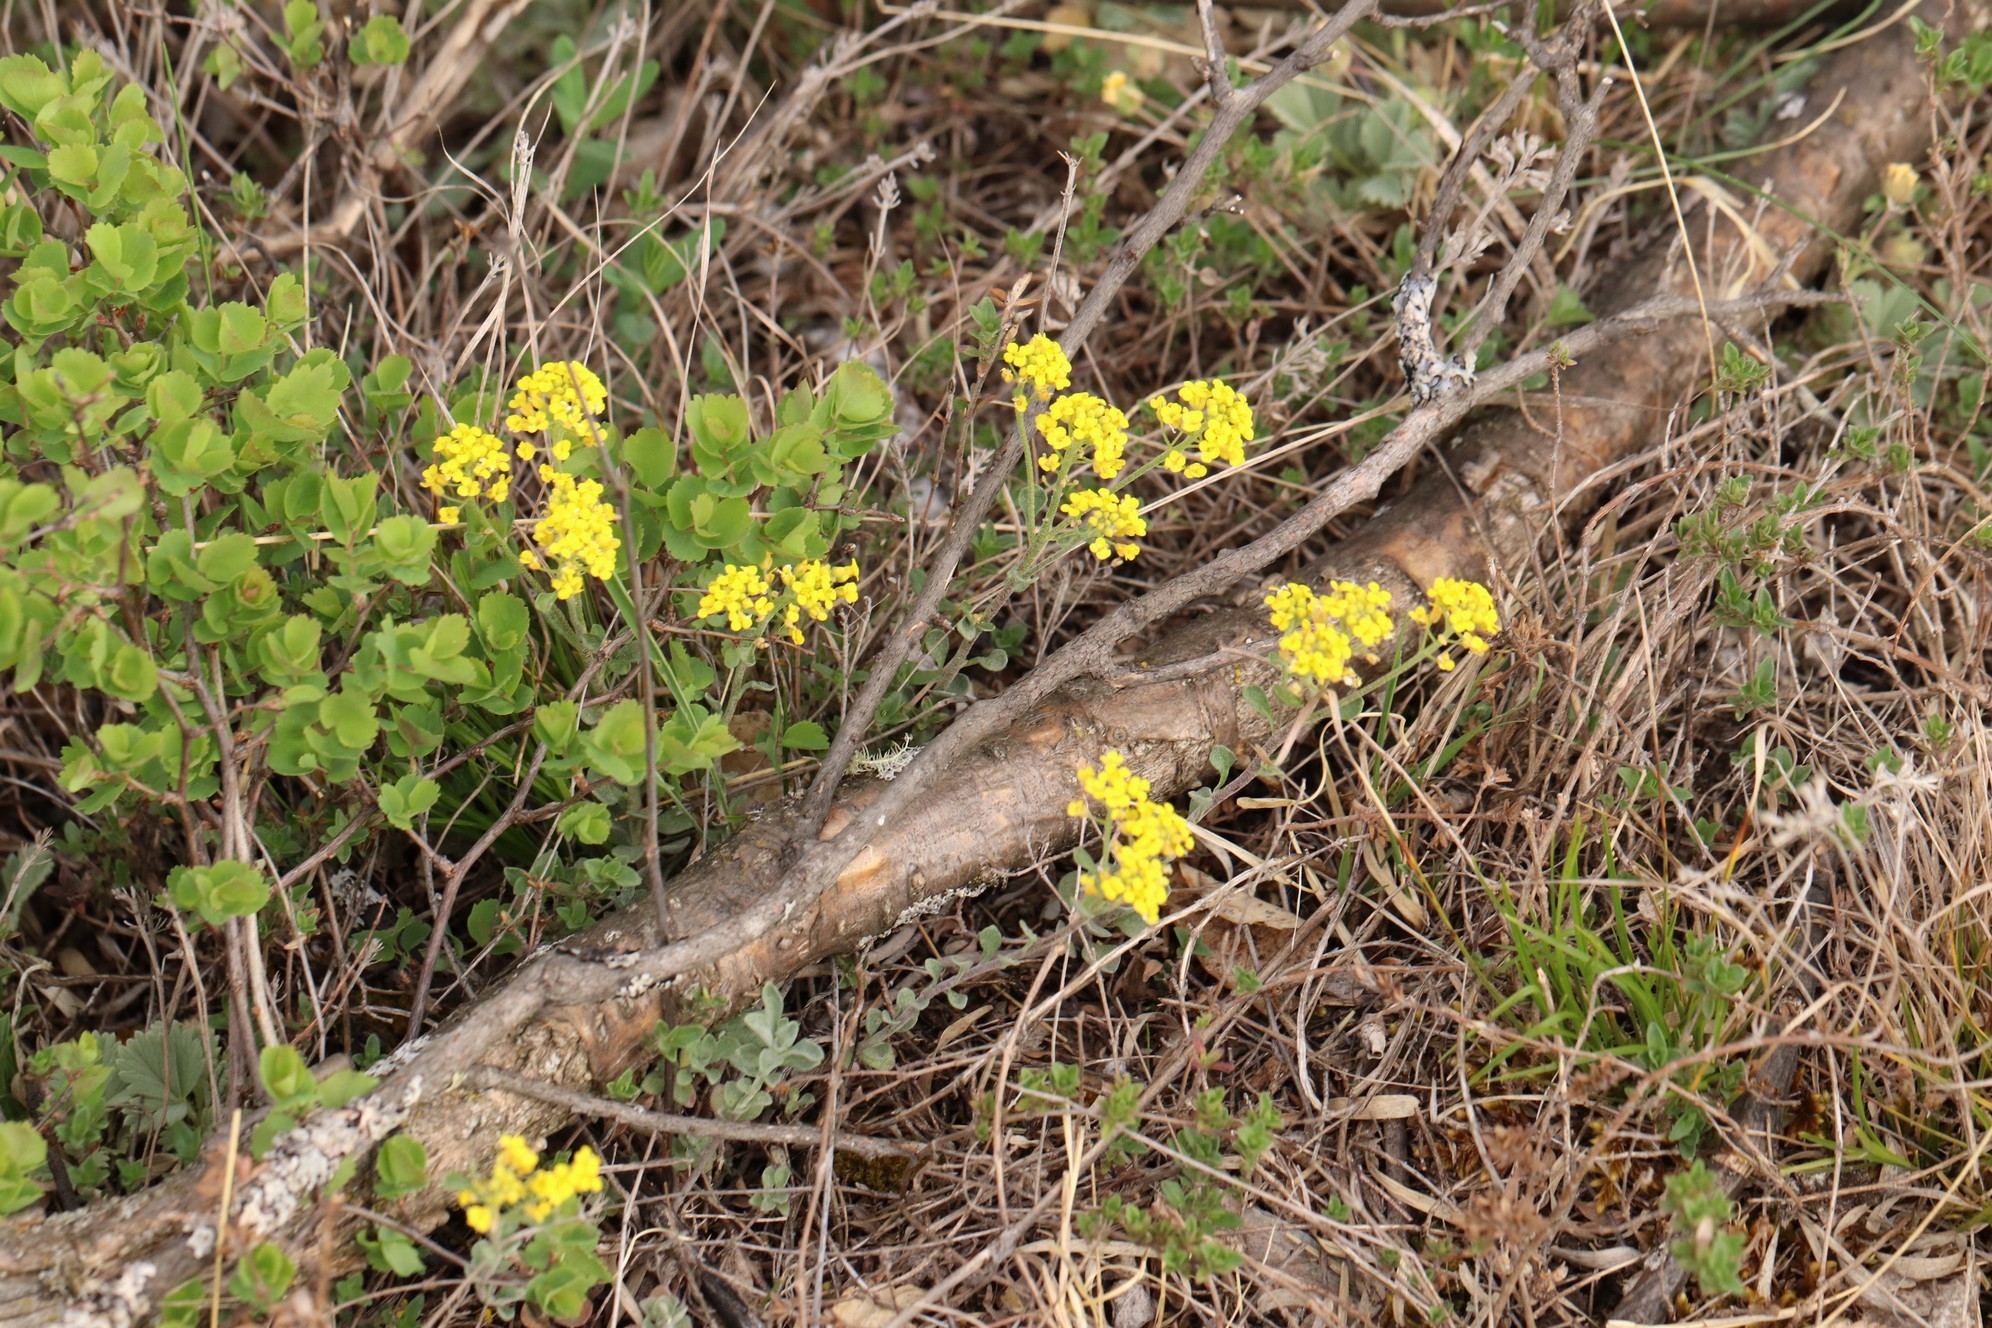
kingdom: Plantae
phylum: Tracheophyta
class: Magnoliopsida
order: Brassicales
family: Brassicaceae
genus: Odontarrhena
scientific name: Odontarrhena obovata
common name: American alyssum
